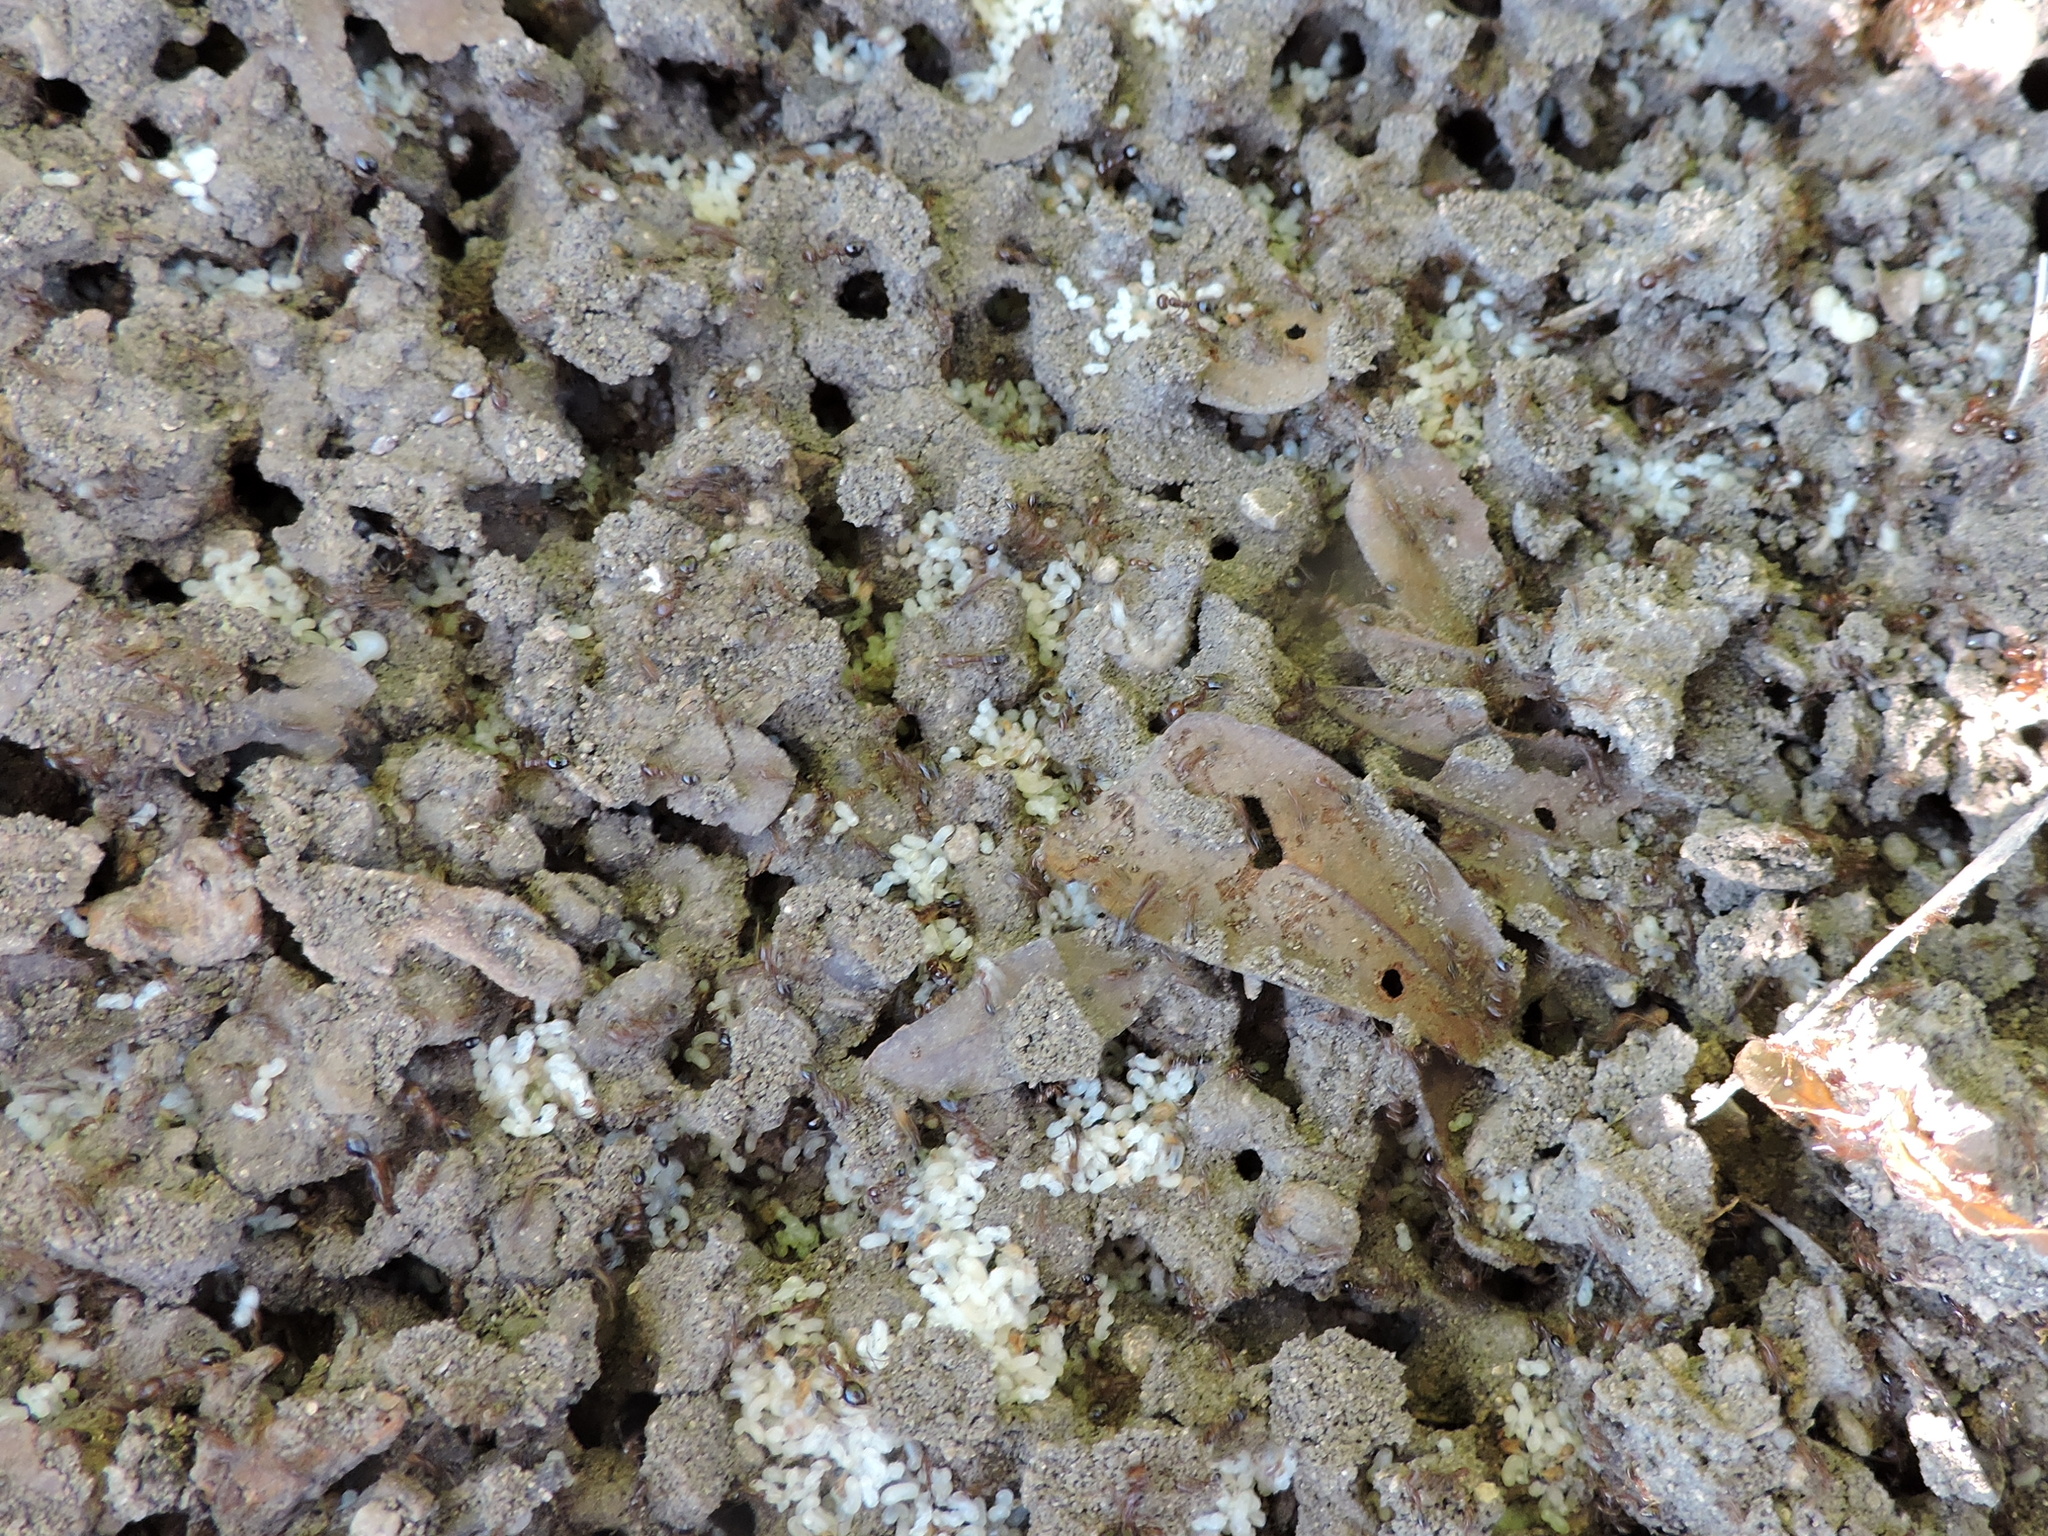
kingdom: Animalia
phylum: Arthropoda
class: Insecta
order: Hymenoptera
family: Formicidae
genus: Solenopsis
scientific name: Solenopsis invicta
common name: Red imported fire ant
